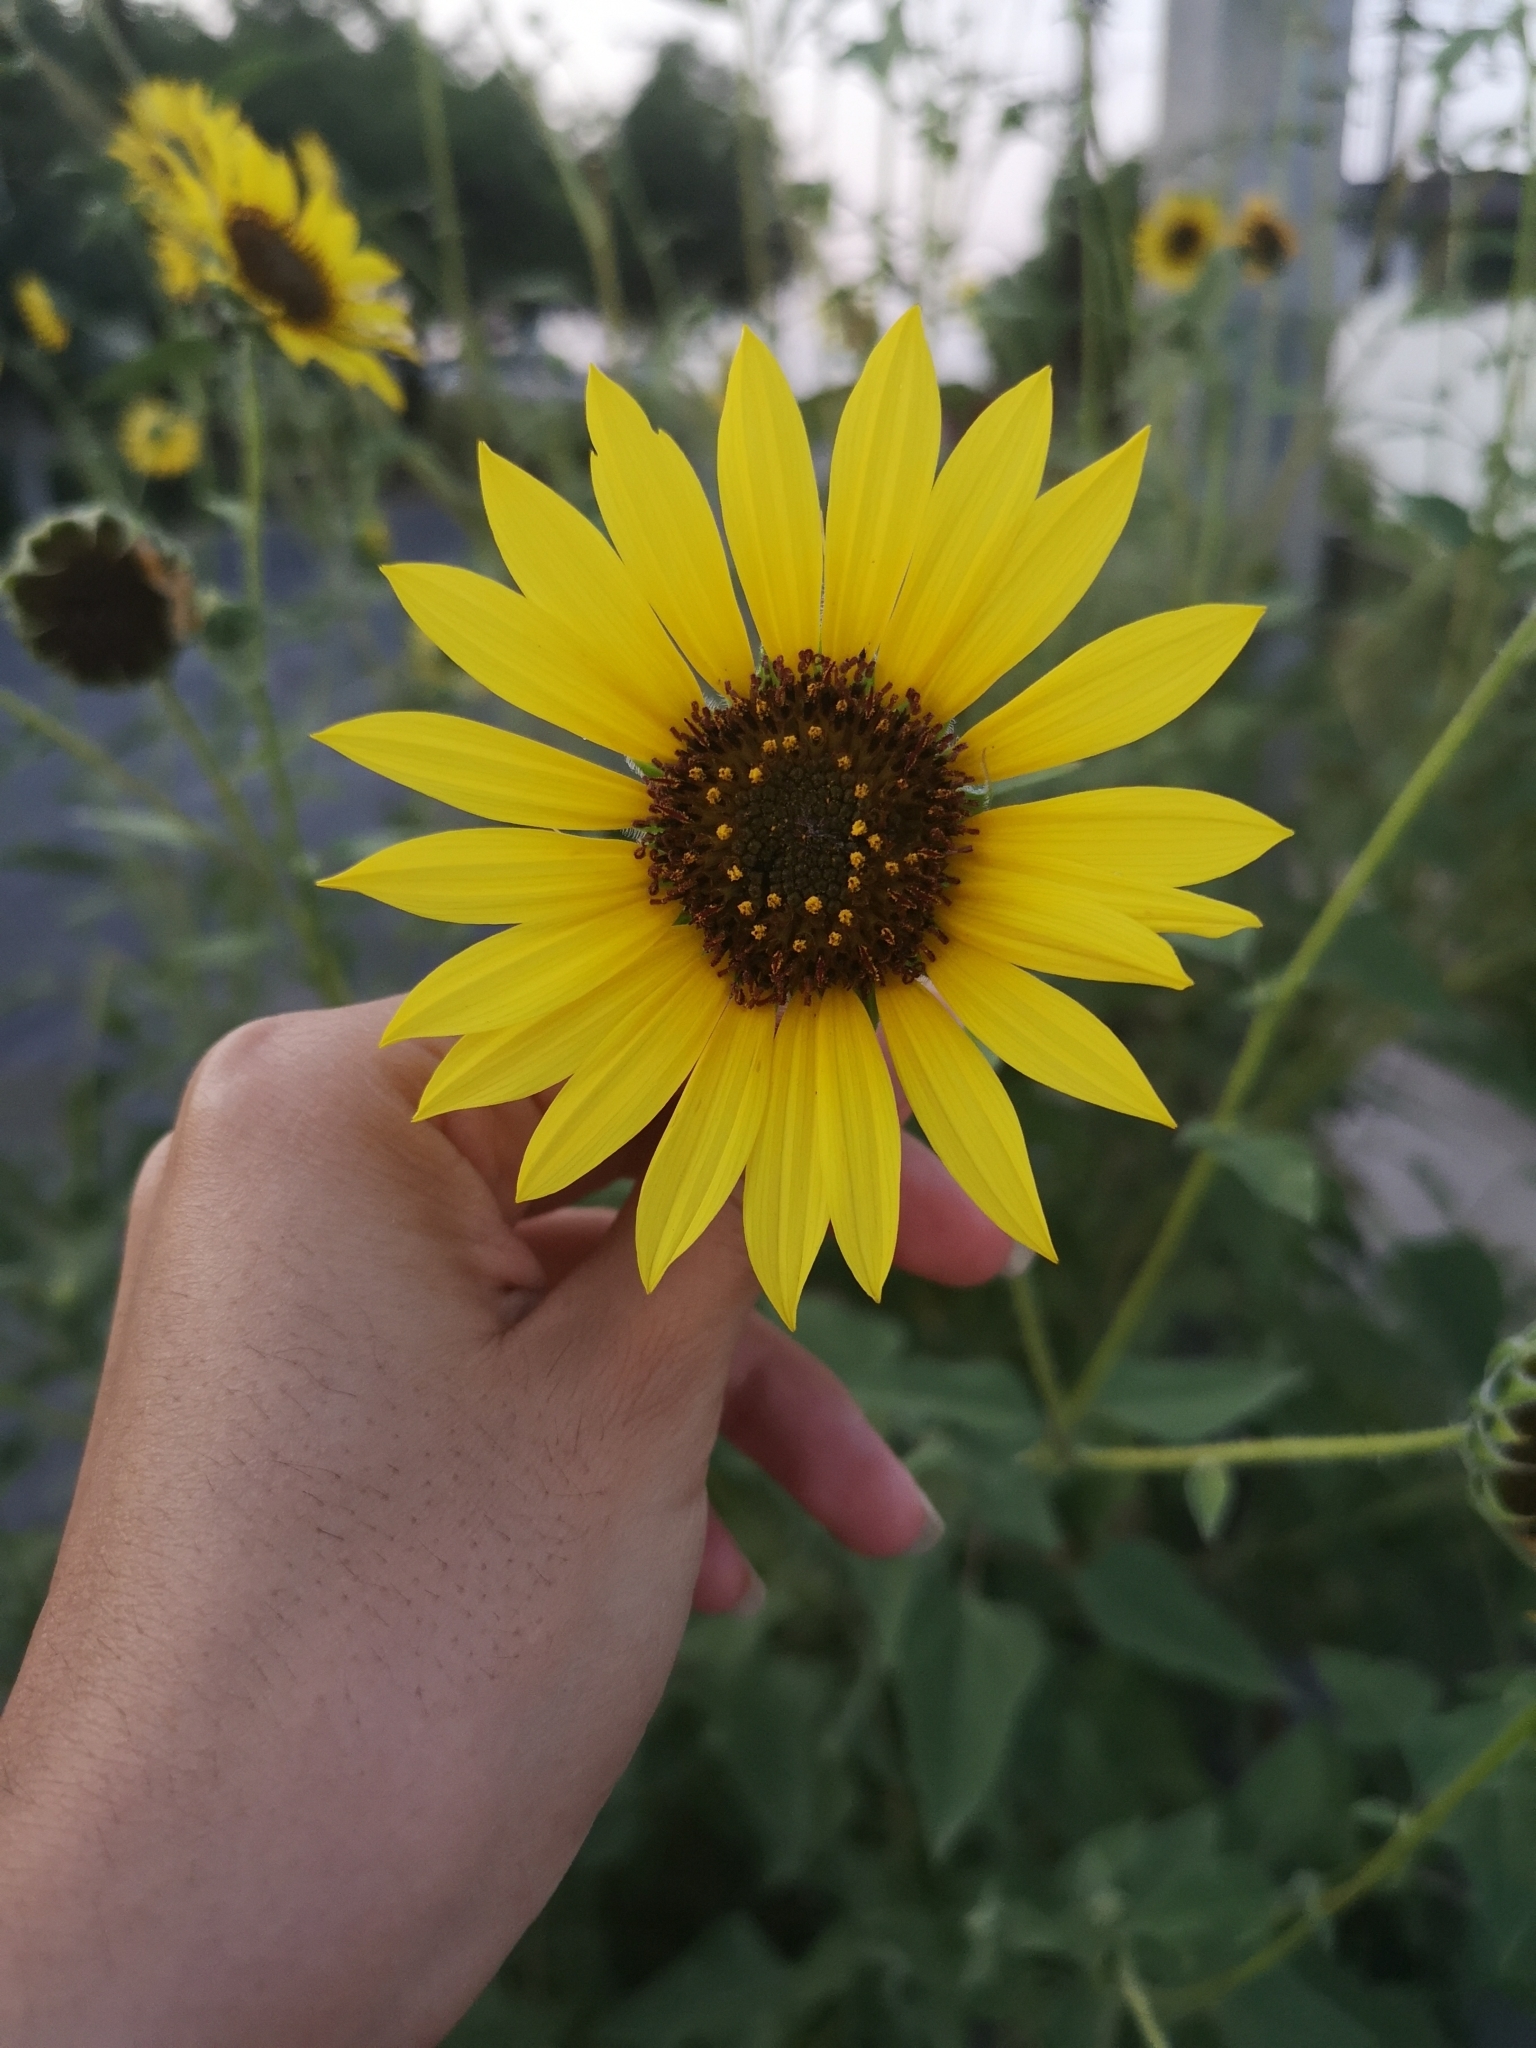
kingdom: Plantae
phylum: Tracheophyta
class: Magnoliopsida
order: Asterales
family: Asteraceae
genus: Helianthus
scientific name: Helianthus petiolaris
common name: Lesser sunflower
